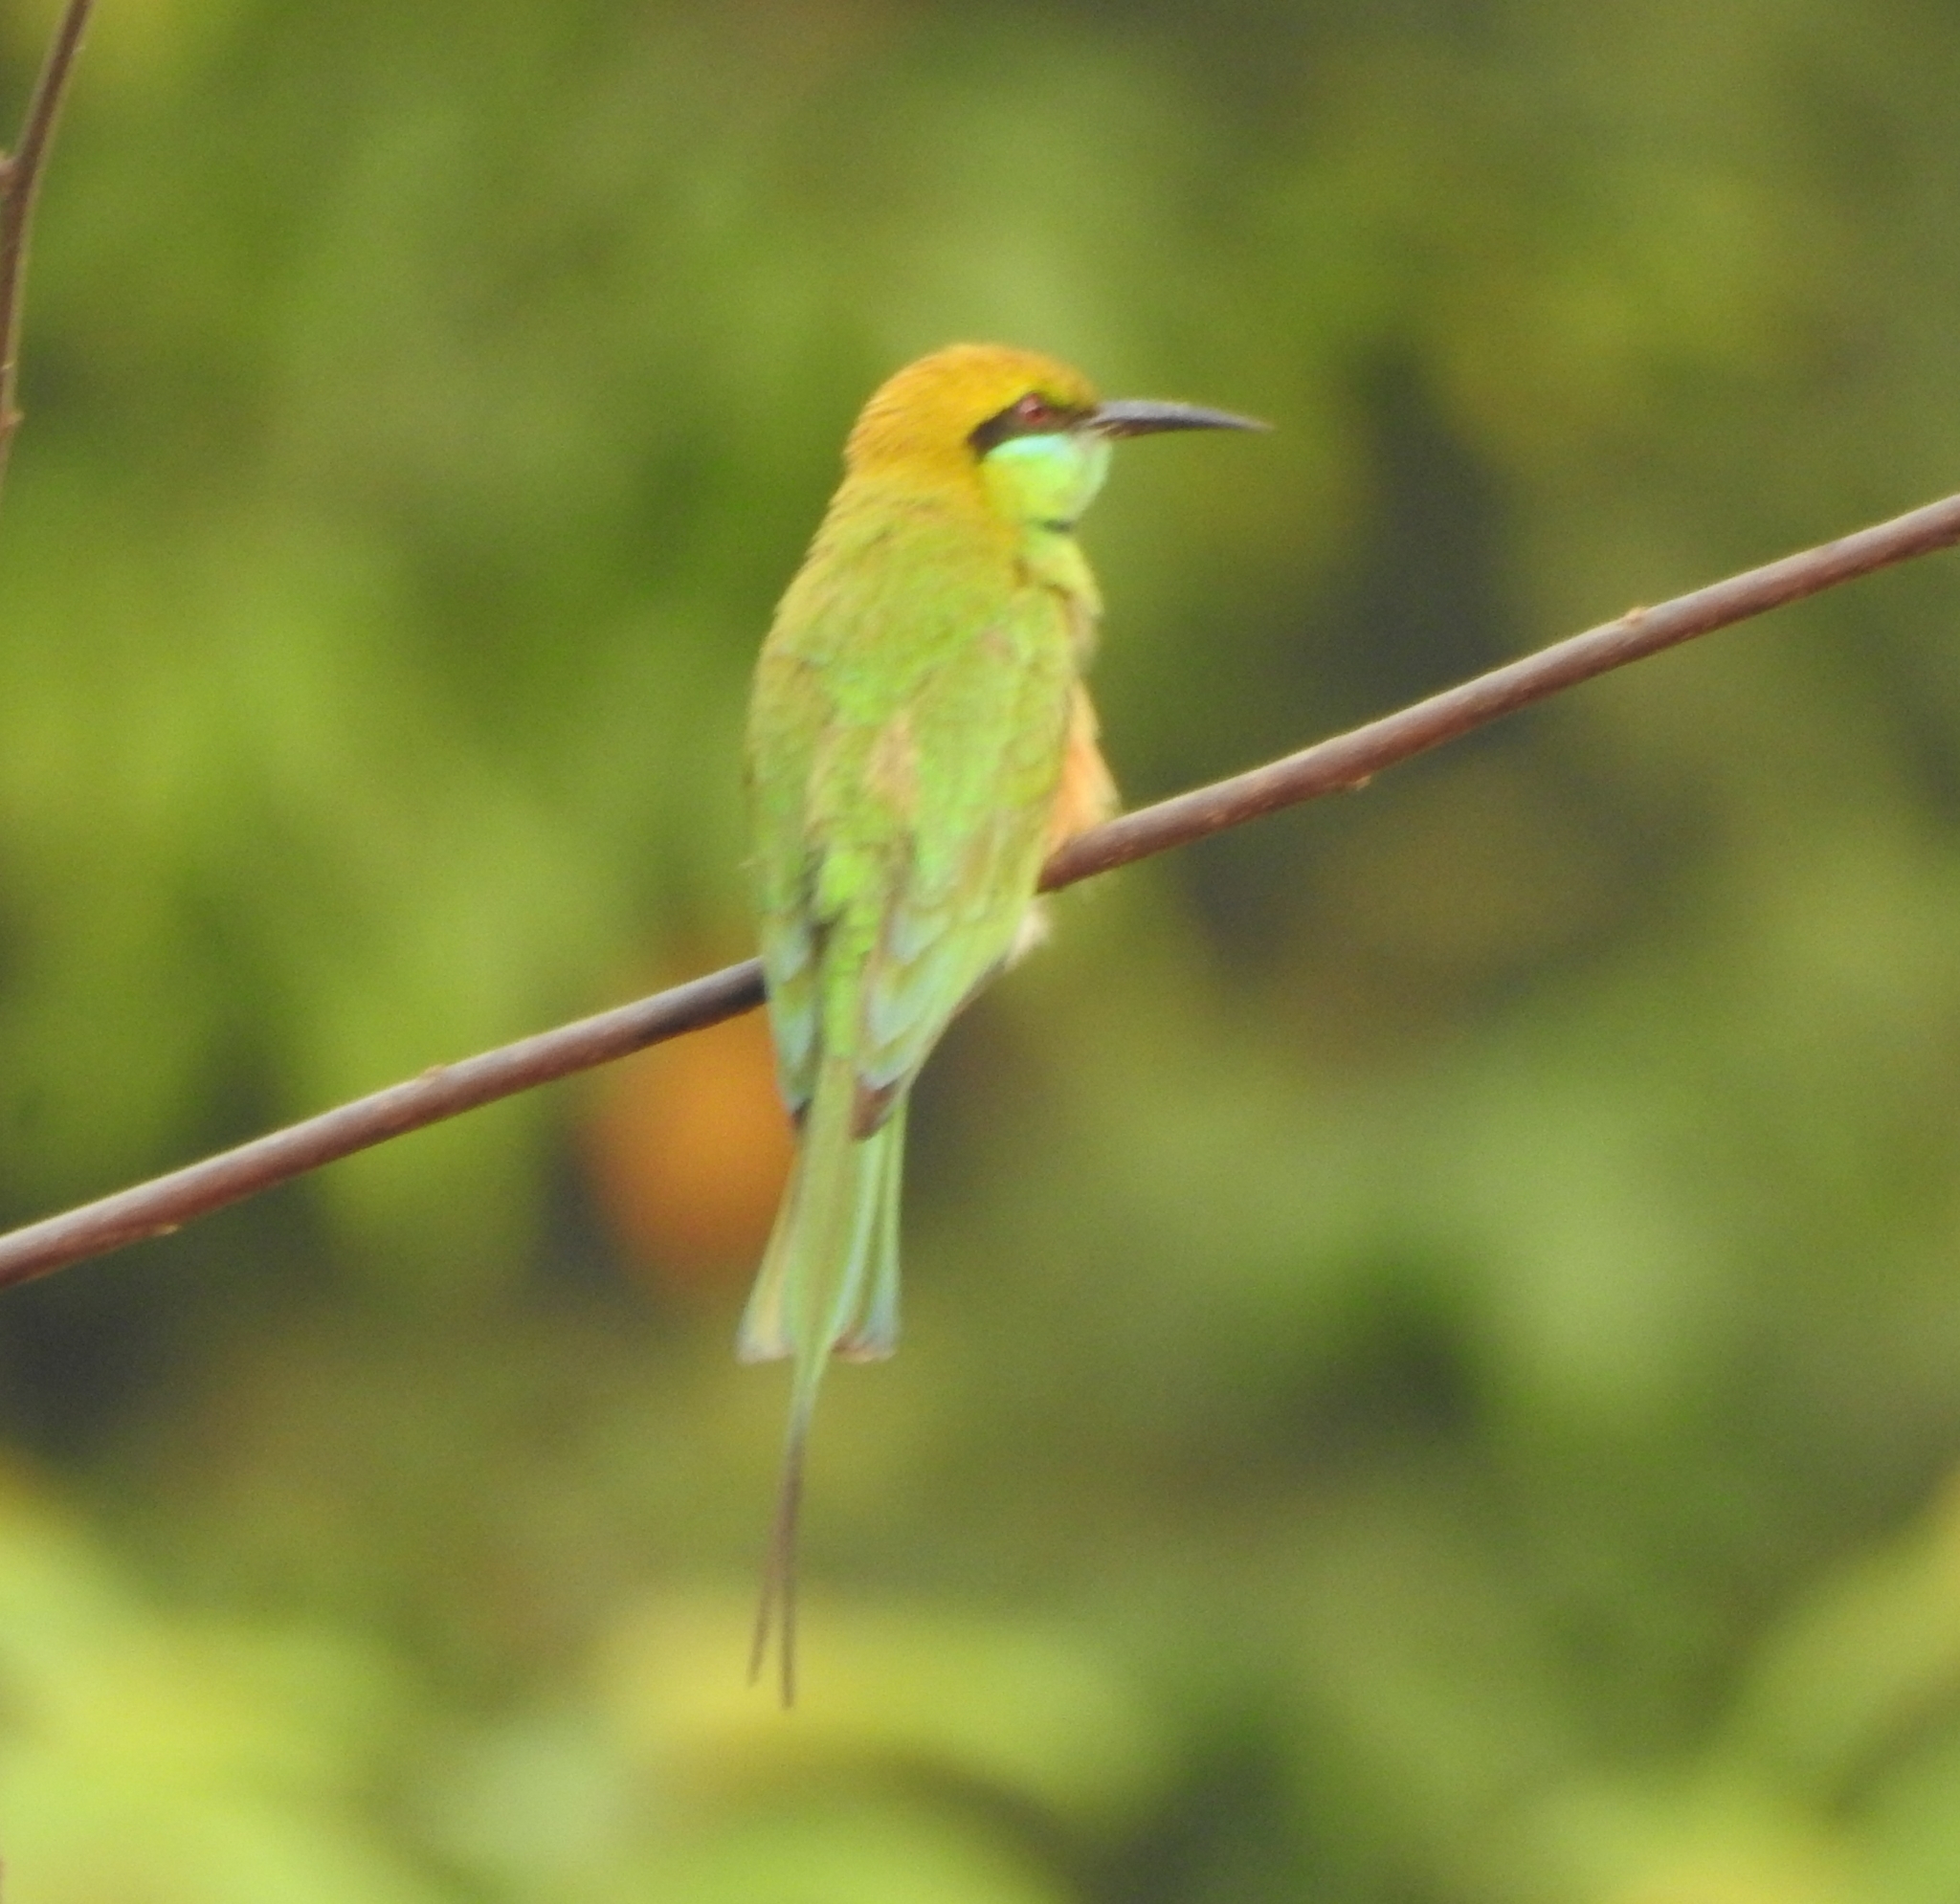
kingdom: Animalia
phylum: Chordata
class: Aves
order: Coraciiformes
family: Meropidae
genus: Merops
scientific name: Merops orientalis
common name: Green bee-eater
